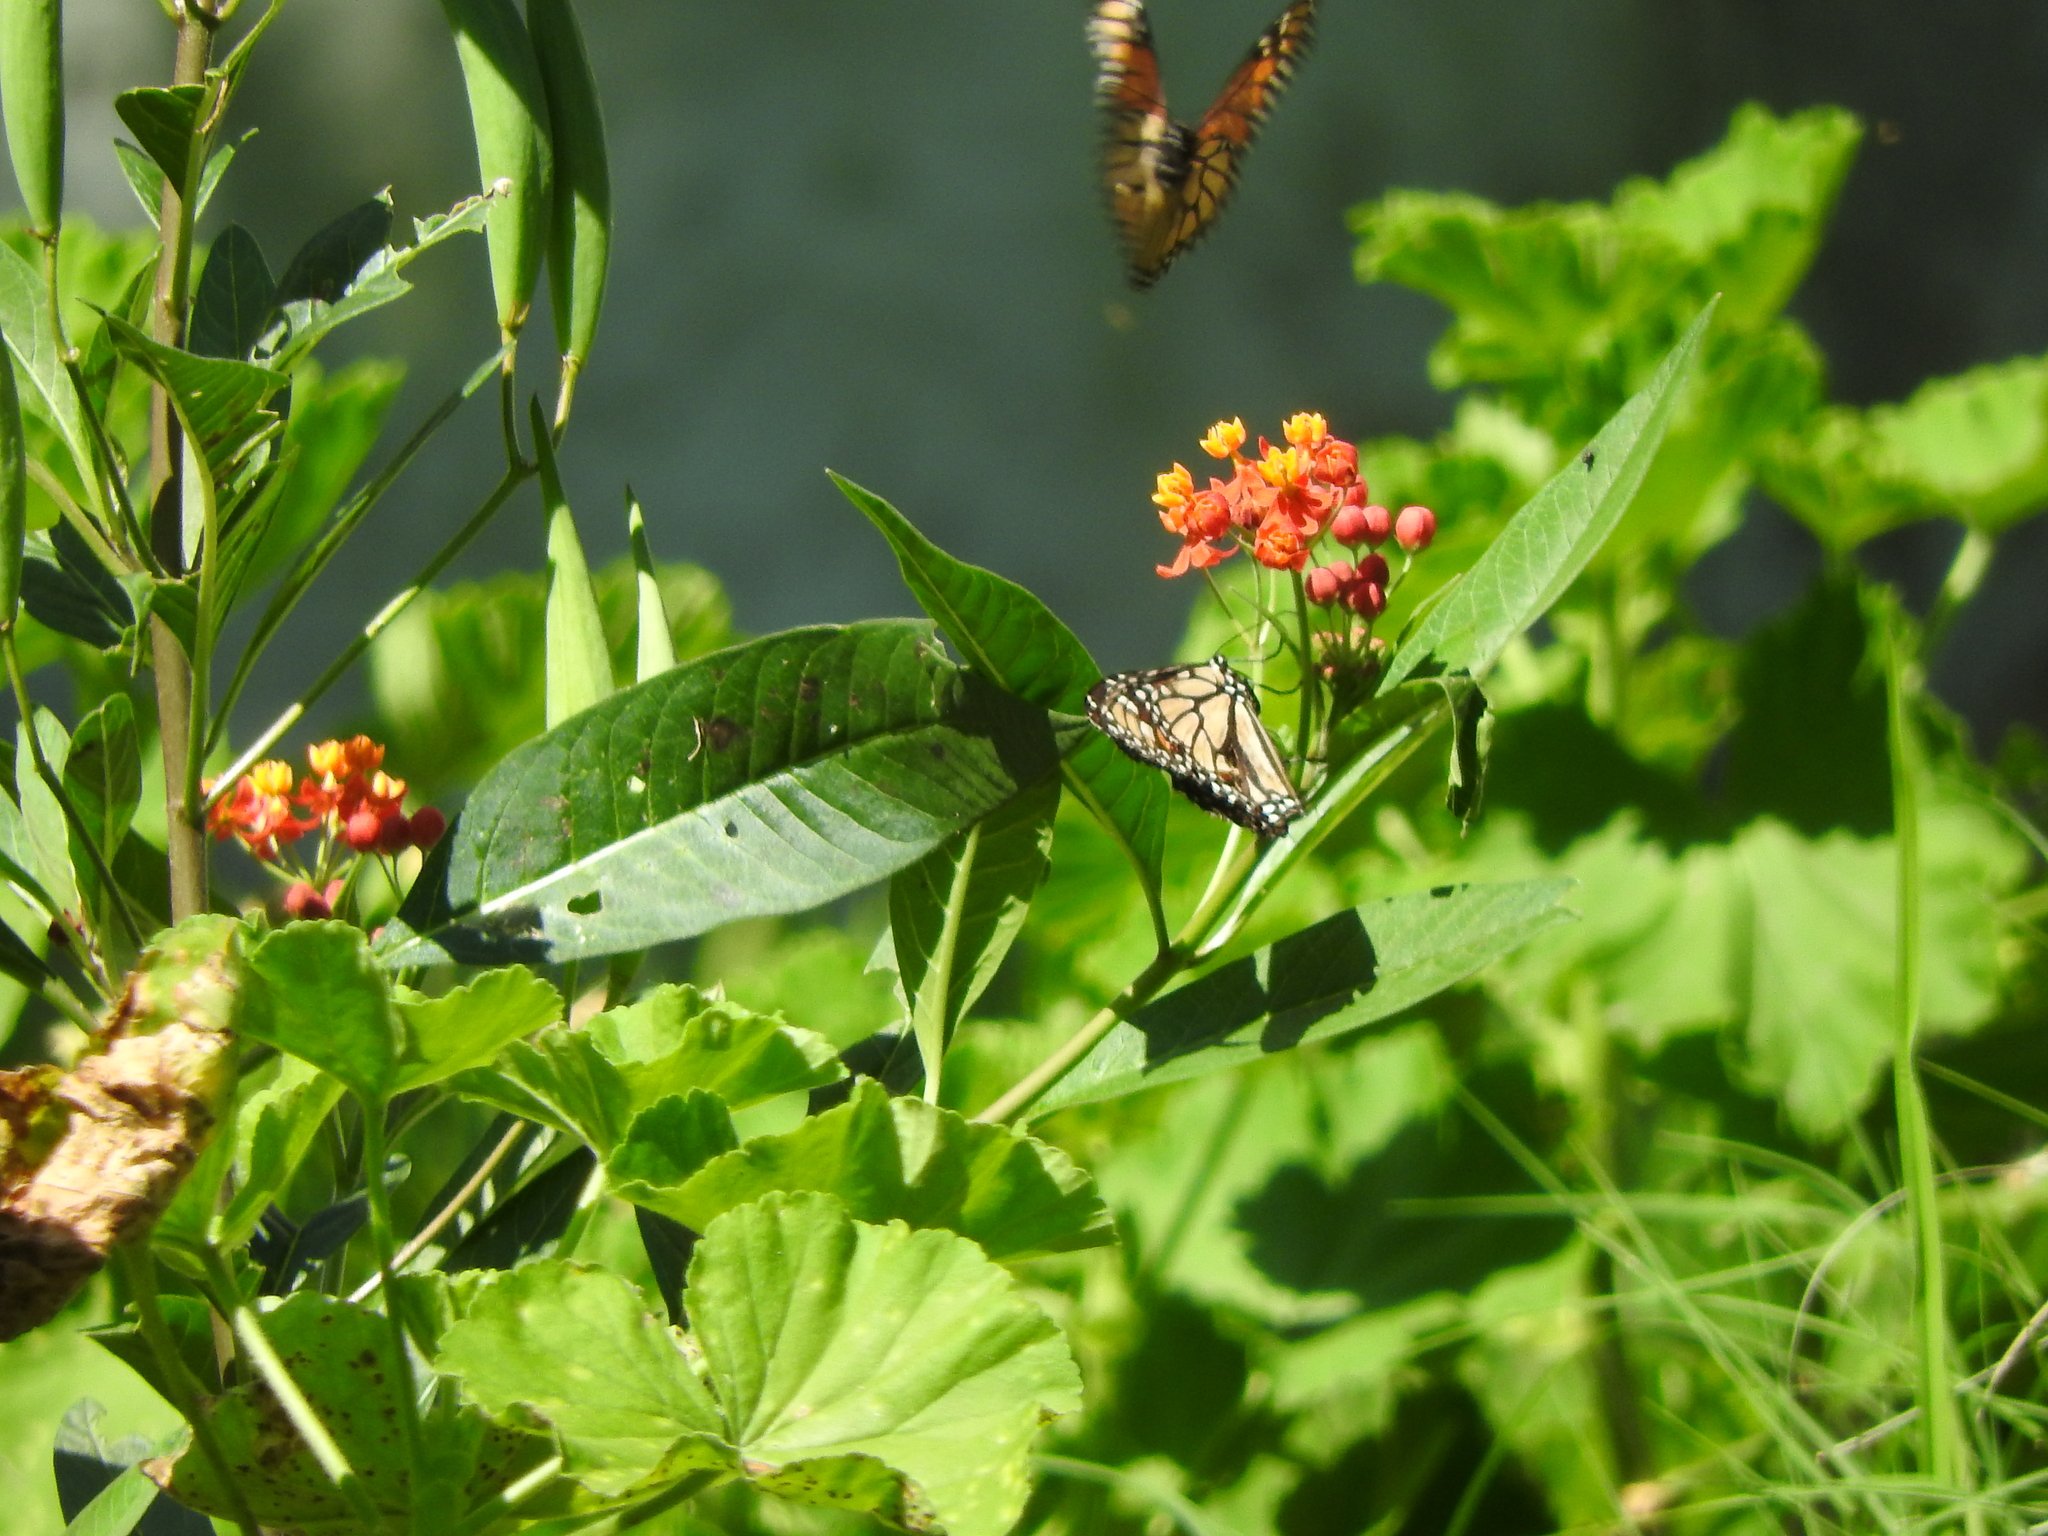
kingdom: Animalia
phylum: Arthropoda
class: Insecta
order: Lepidoptera
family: Nymphalidae
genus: Danaus
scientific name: Danaus plexippus
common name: Monarch
